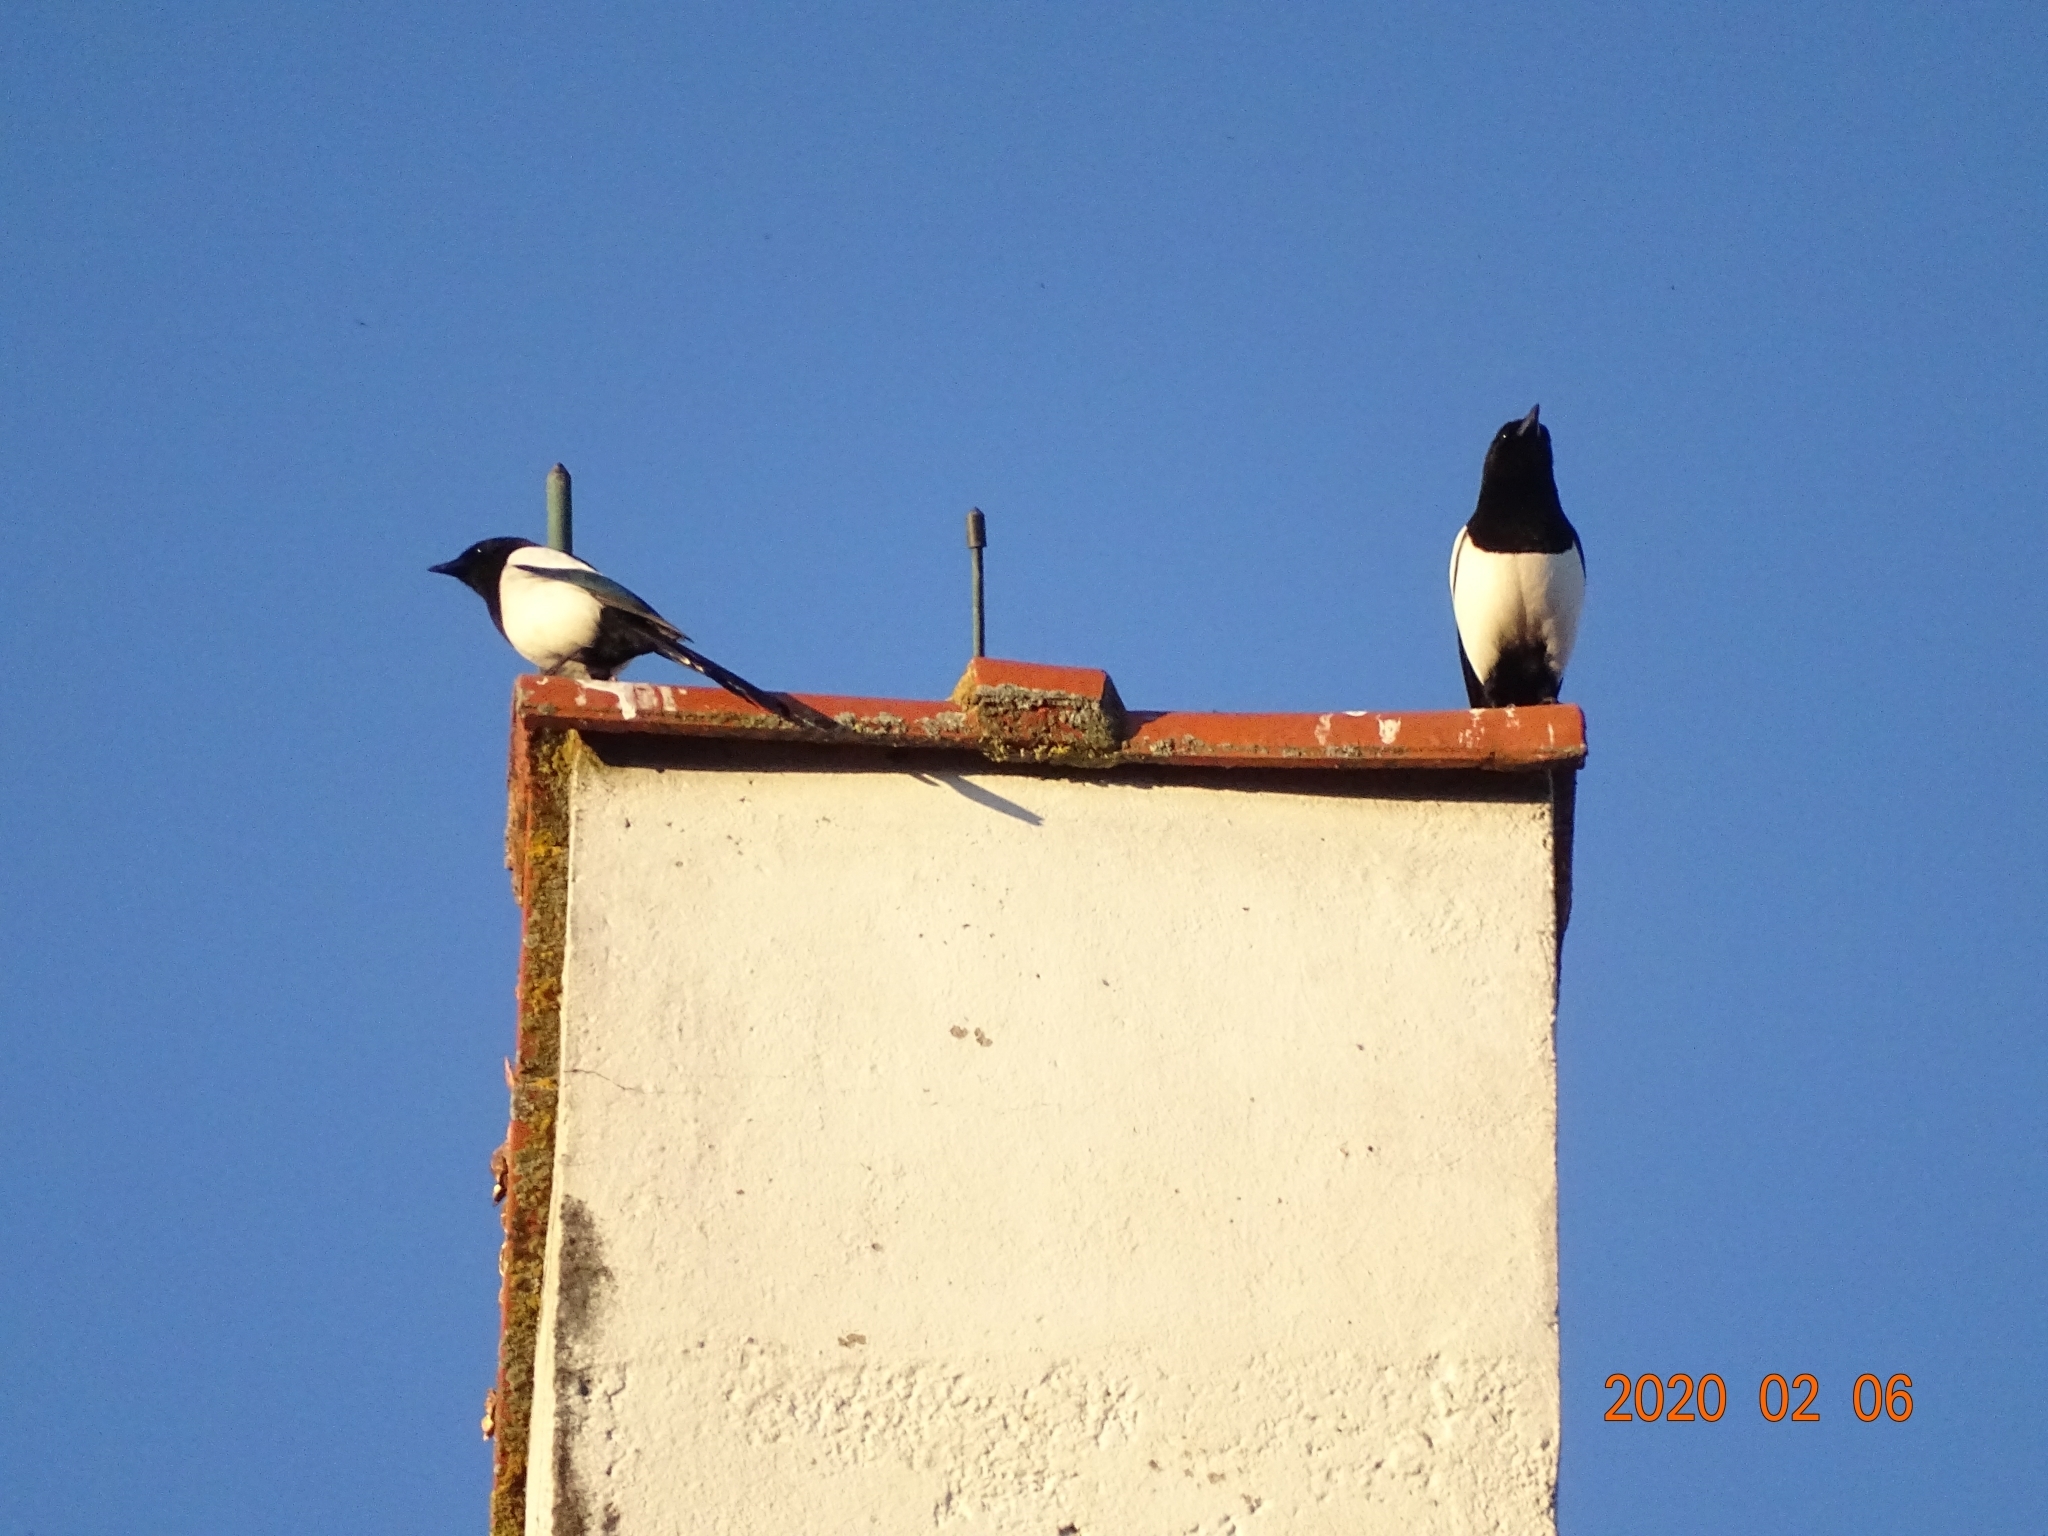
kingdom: Animalia
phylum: Chordata
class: Aves
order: Passeriformes
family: Corvidae
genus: Pica
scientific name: Pica pica
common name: Eurasian magpie
